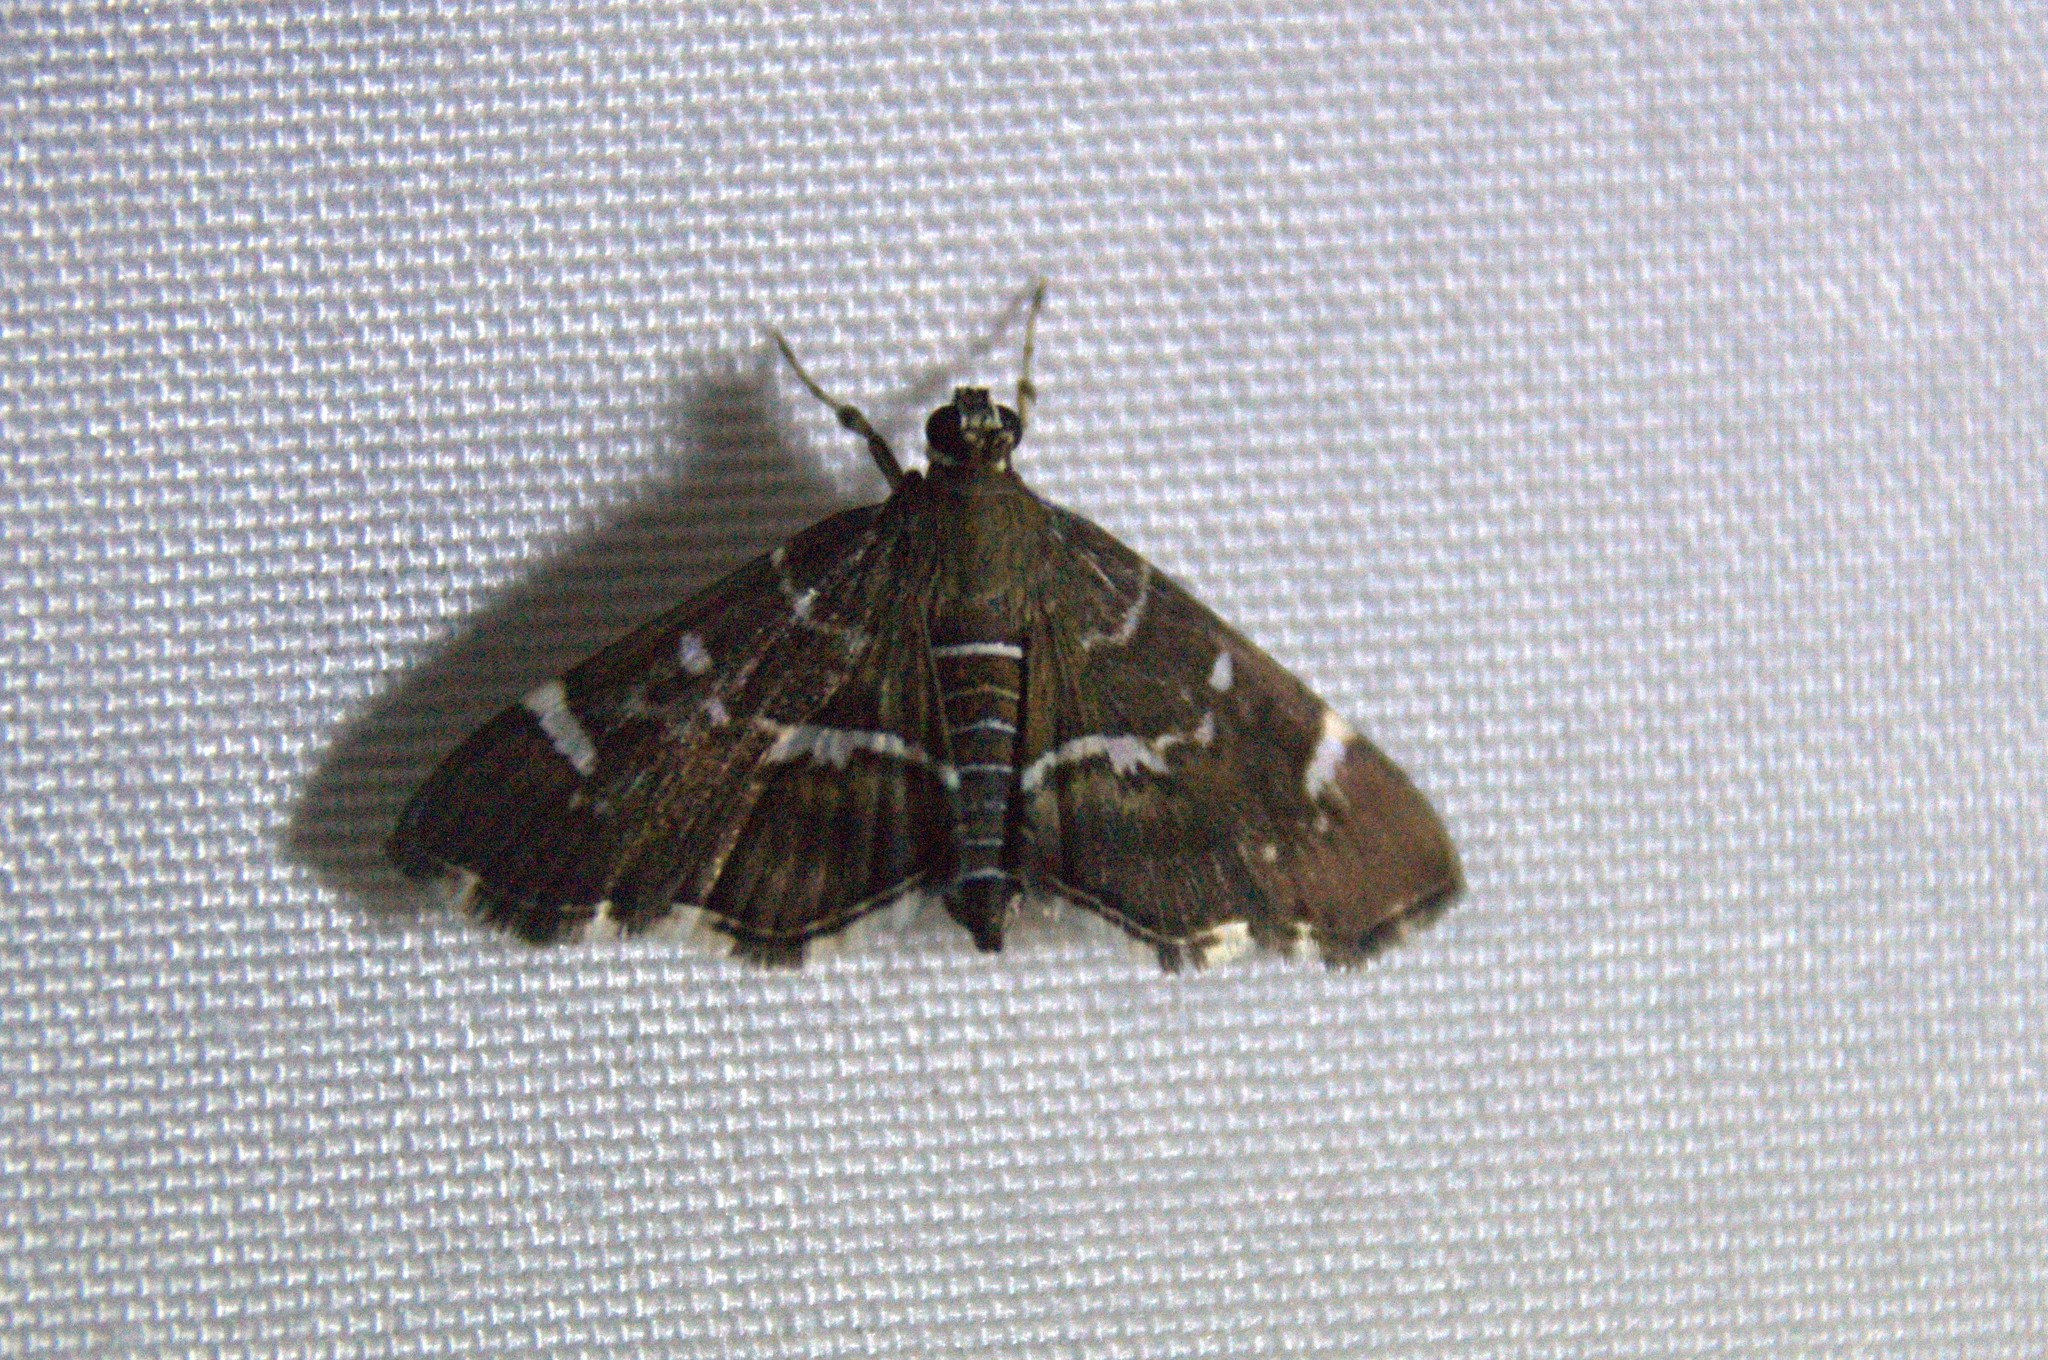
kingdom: Animalia
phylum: Arthropoda
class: Insecta
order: Lepidoptera
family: Crambidae
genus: Hymenia
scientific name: Hymenia perspectalis
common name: Spotted beet webworm
